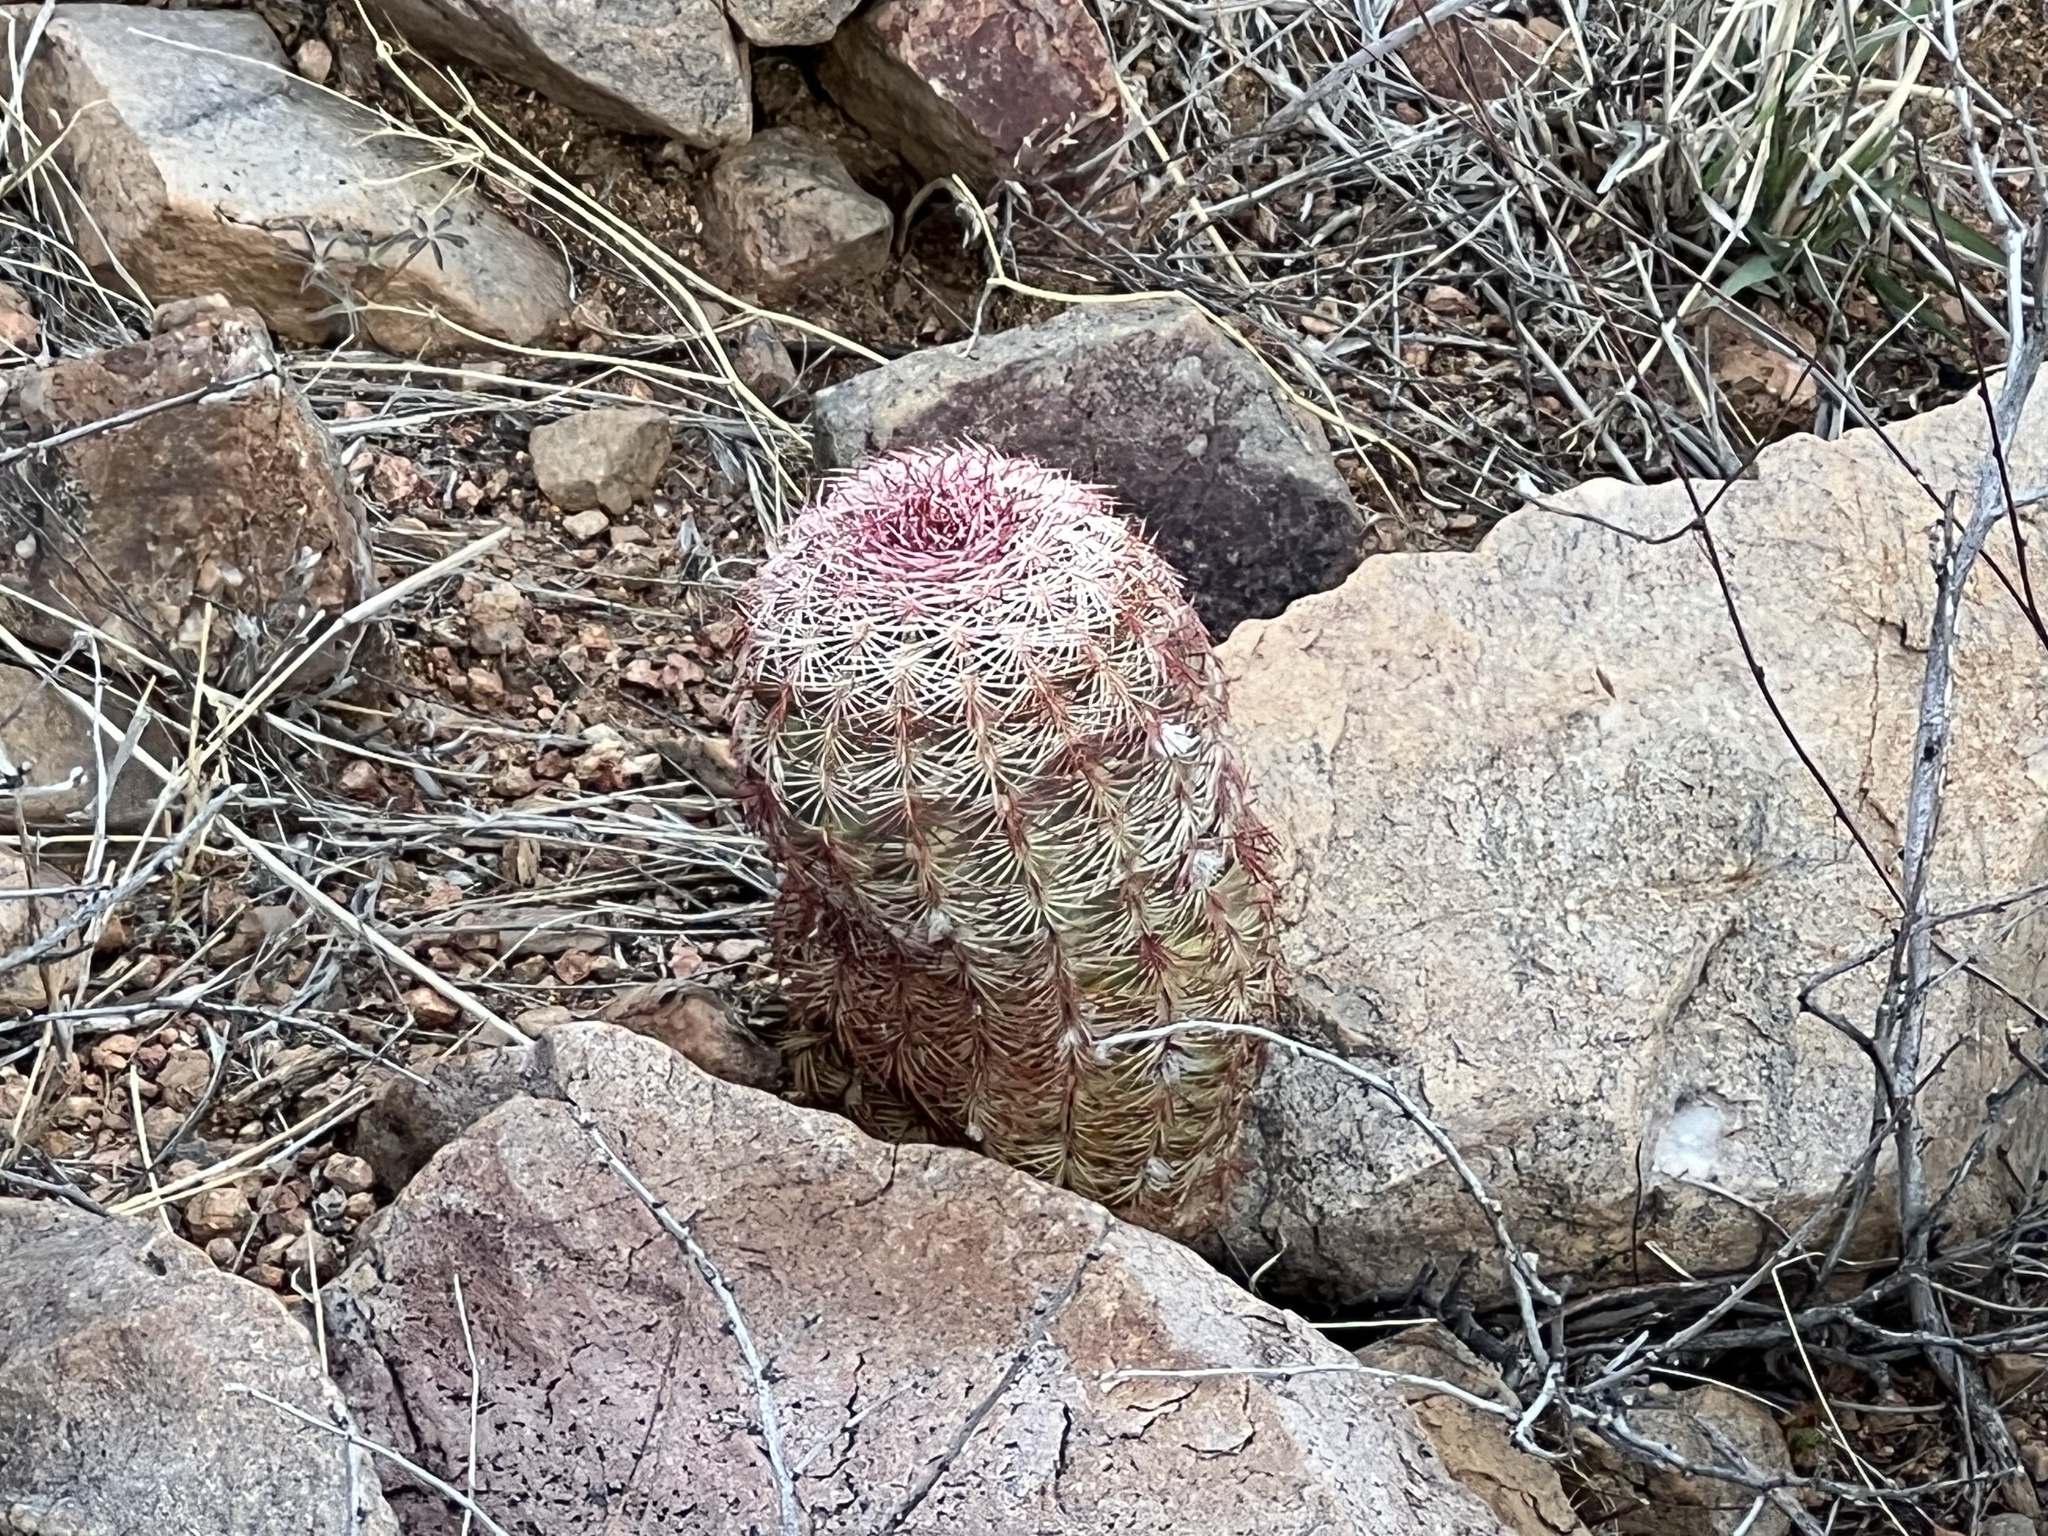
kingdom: Plantae
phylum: Tracheophyta
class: Magnoliopsida
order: Caryophyllales
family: Cactaceae
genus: Echinocereus
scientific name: Echinocereus rigidissimus
